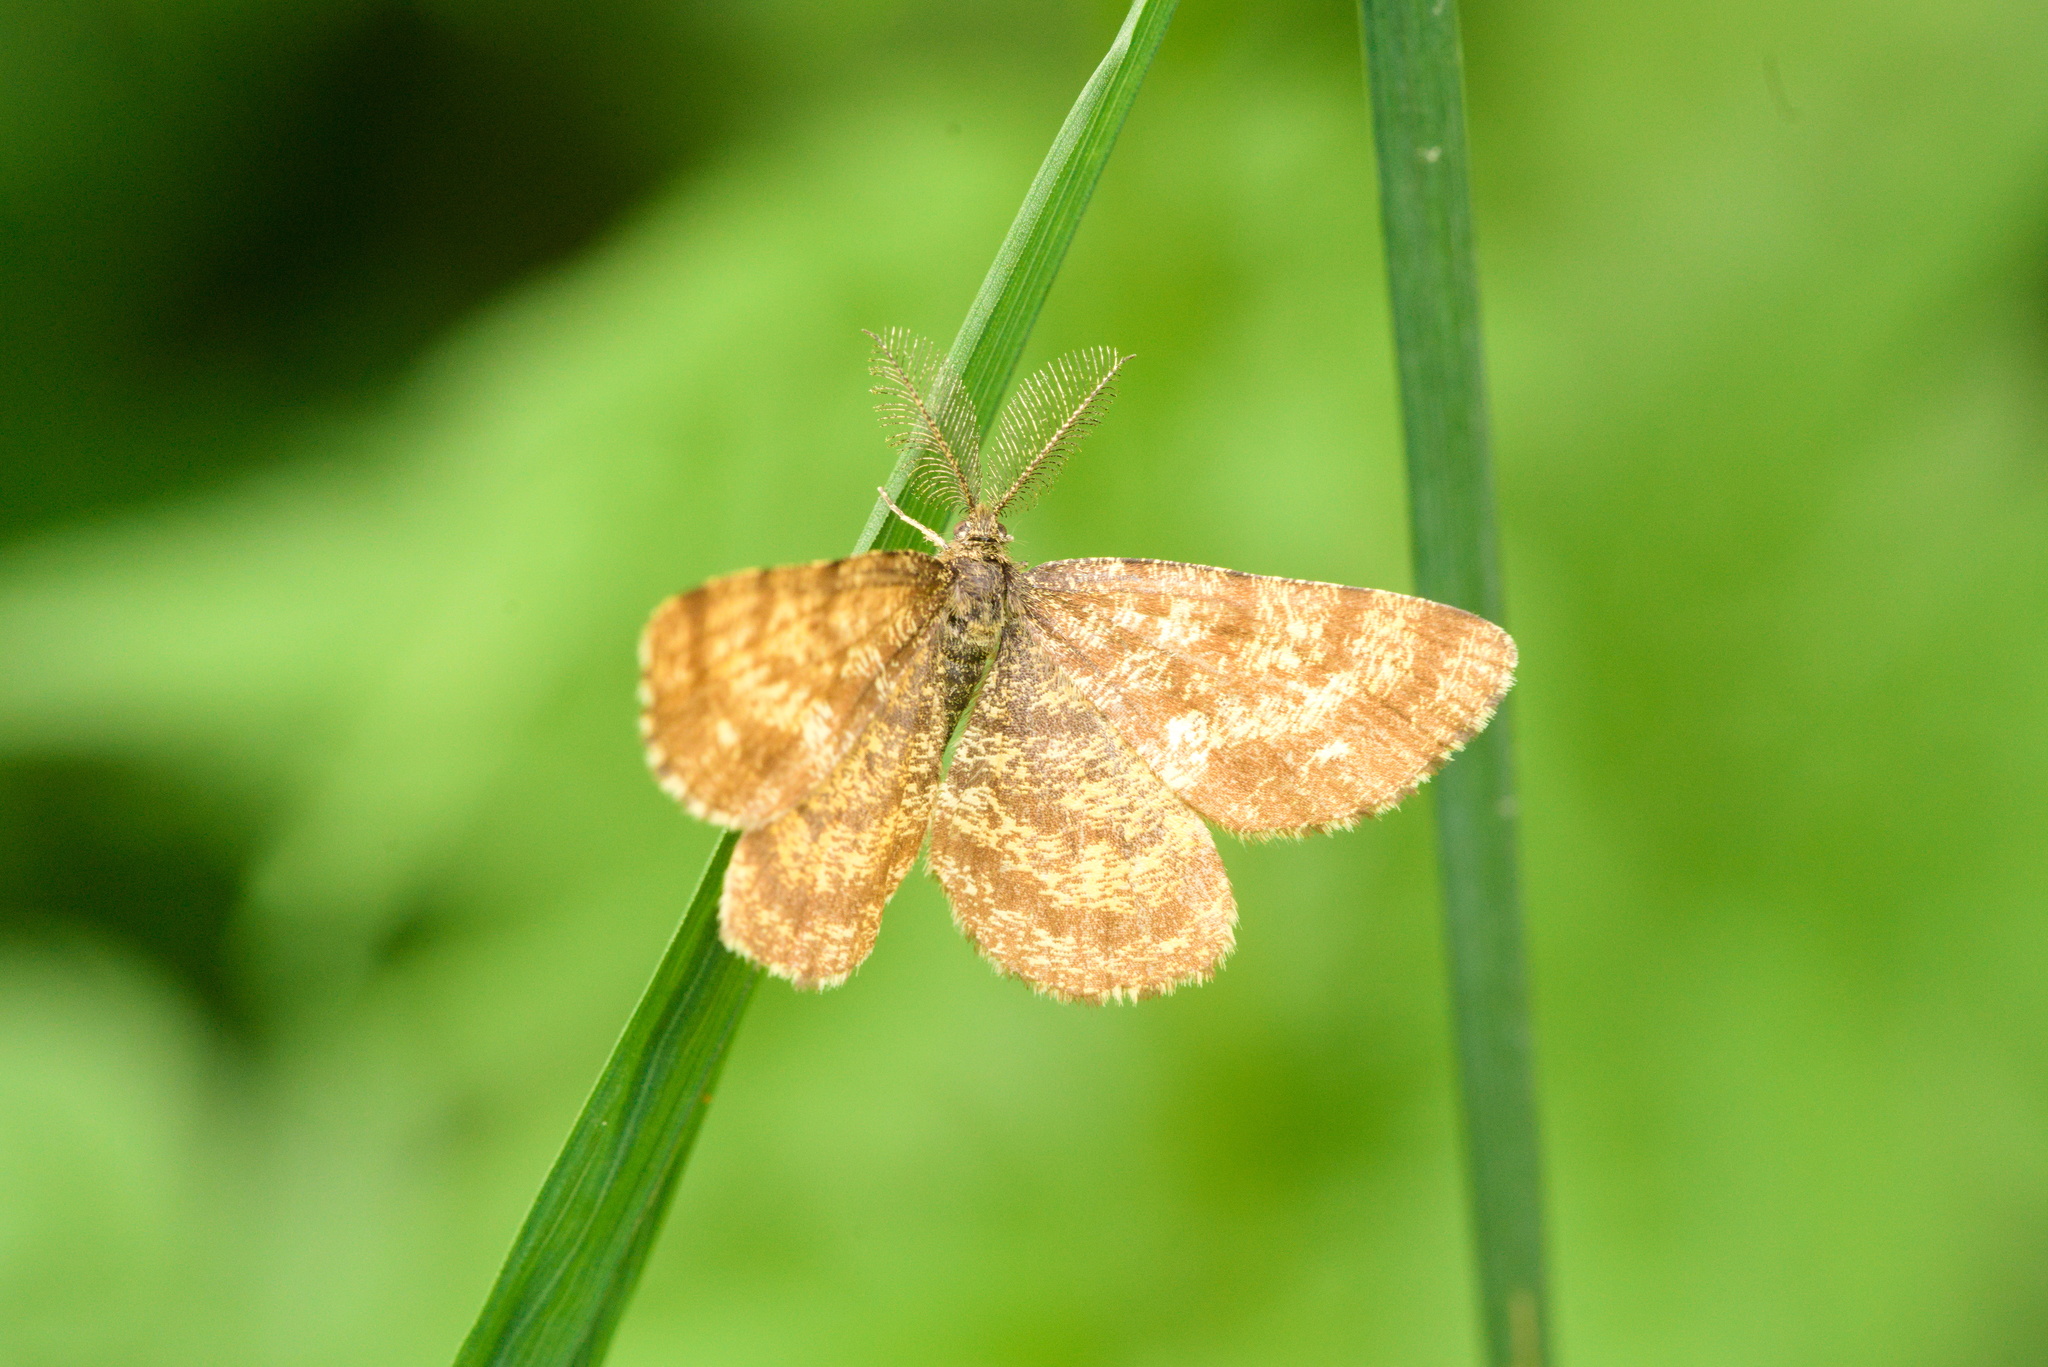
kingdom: Animalia
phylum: Arthropoda
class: Insecta
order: Lepidoptera
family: Geometridae
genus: Ematurga
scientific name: Ematurga atomaria
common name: Common heath
